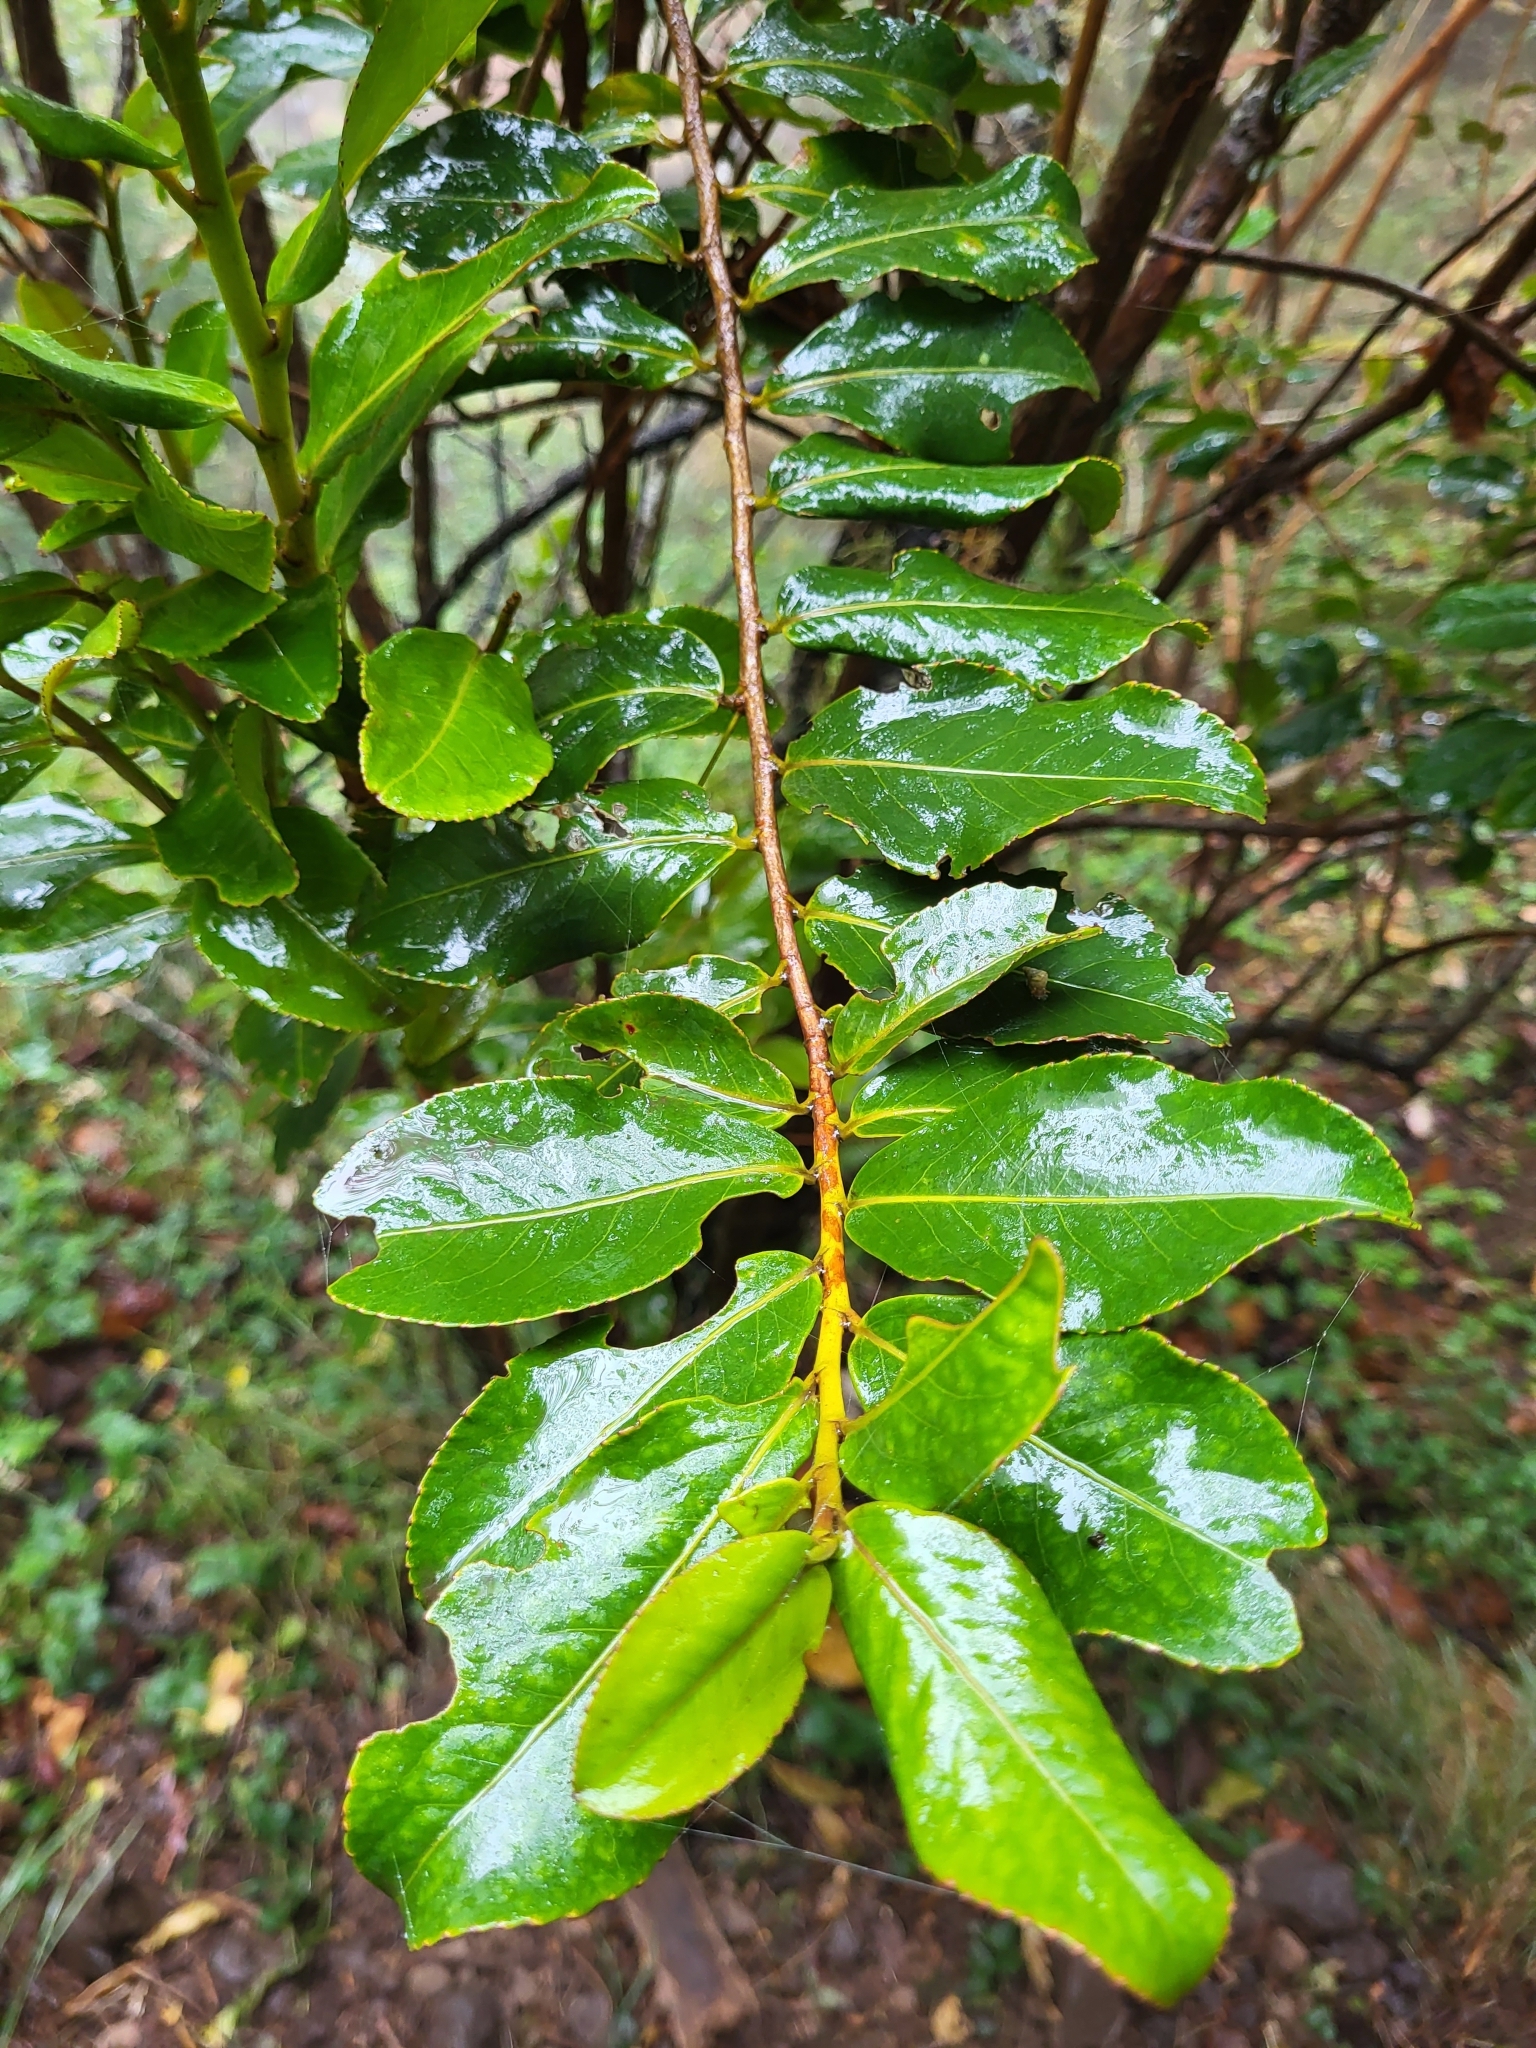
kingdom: Plantae
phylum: Tracheophyta
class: Magnoliopsida
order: Crossosomatales
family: Aphloiaceae
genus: Aphloia
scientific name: Aphloia theiformis
